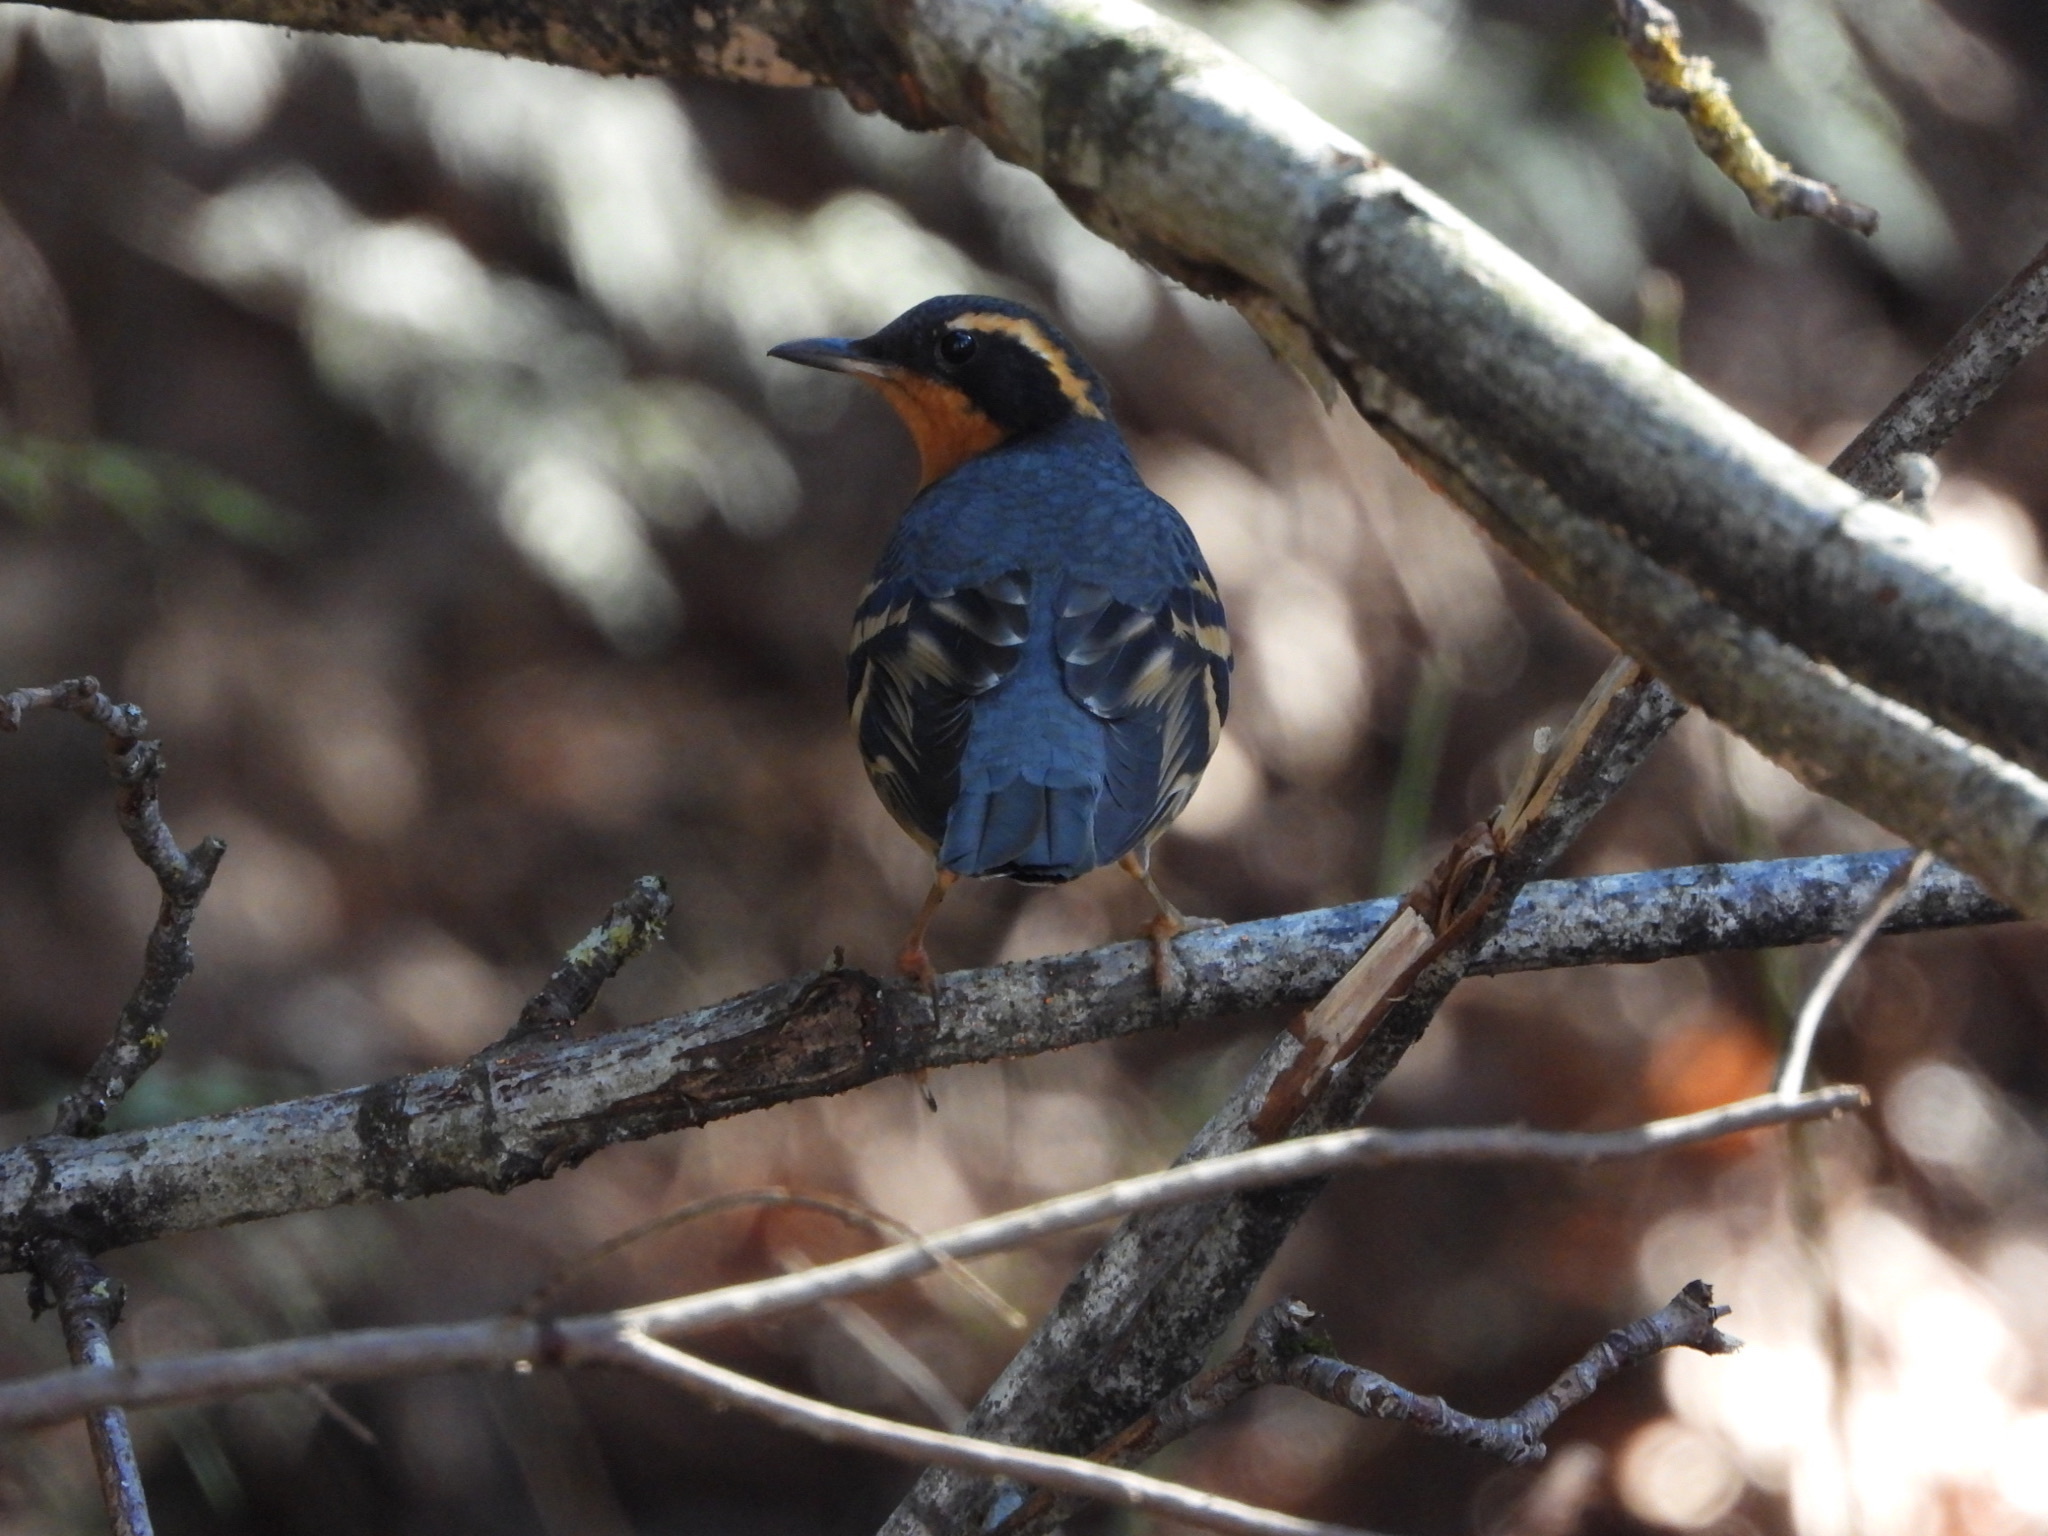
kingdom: Animalia
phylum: Chordata
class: Aves
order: Passeriformes
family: Turdidae
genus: Ixoreus
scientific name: Ixoreus naevius
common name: Varied thrush
